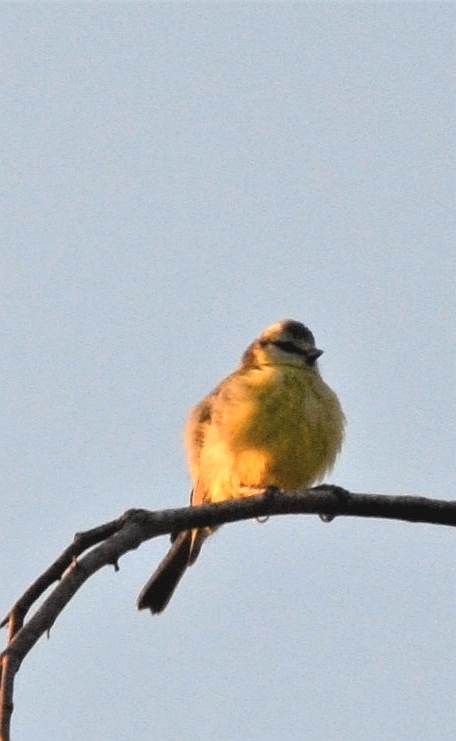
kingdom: Animalia
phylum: Chordata
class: Aves
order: Passeriformes
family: Paridae
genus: Cyanistes
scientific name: Cyanistes caeruleus
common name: Eurasian blue tit
